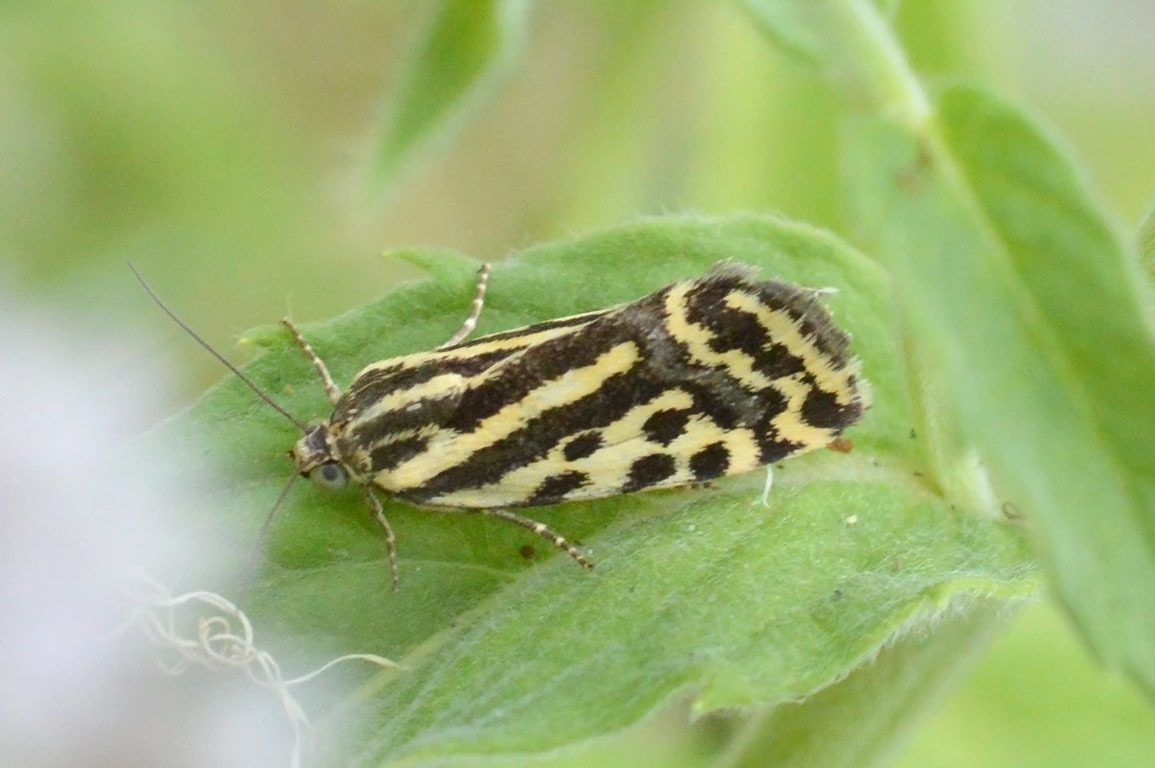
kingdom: Animalia
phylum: Arthropoda
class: Insecta
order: Lepidoptera
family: Noctuidae
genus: Acontia
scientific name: Acontia trabealis
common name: Spotted sulphur
